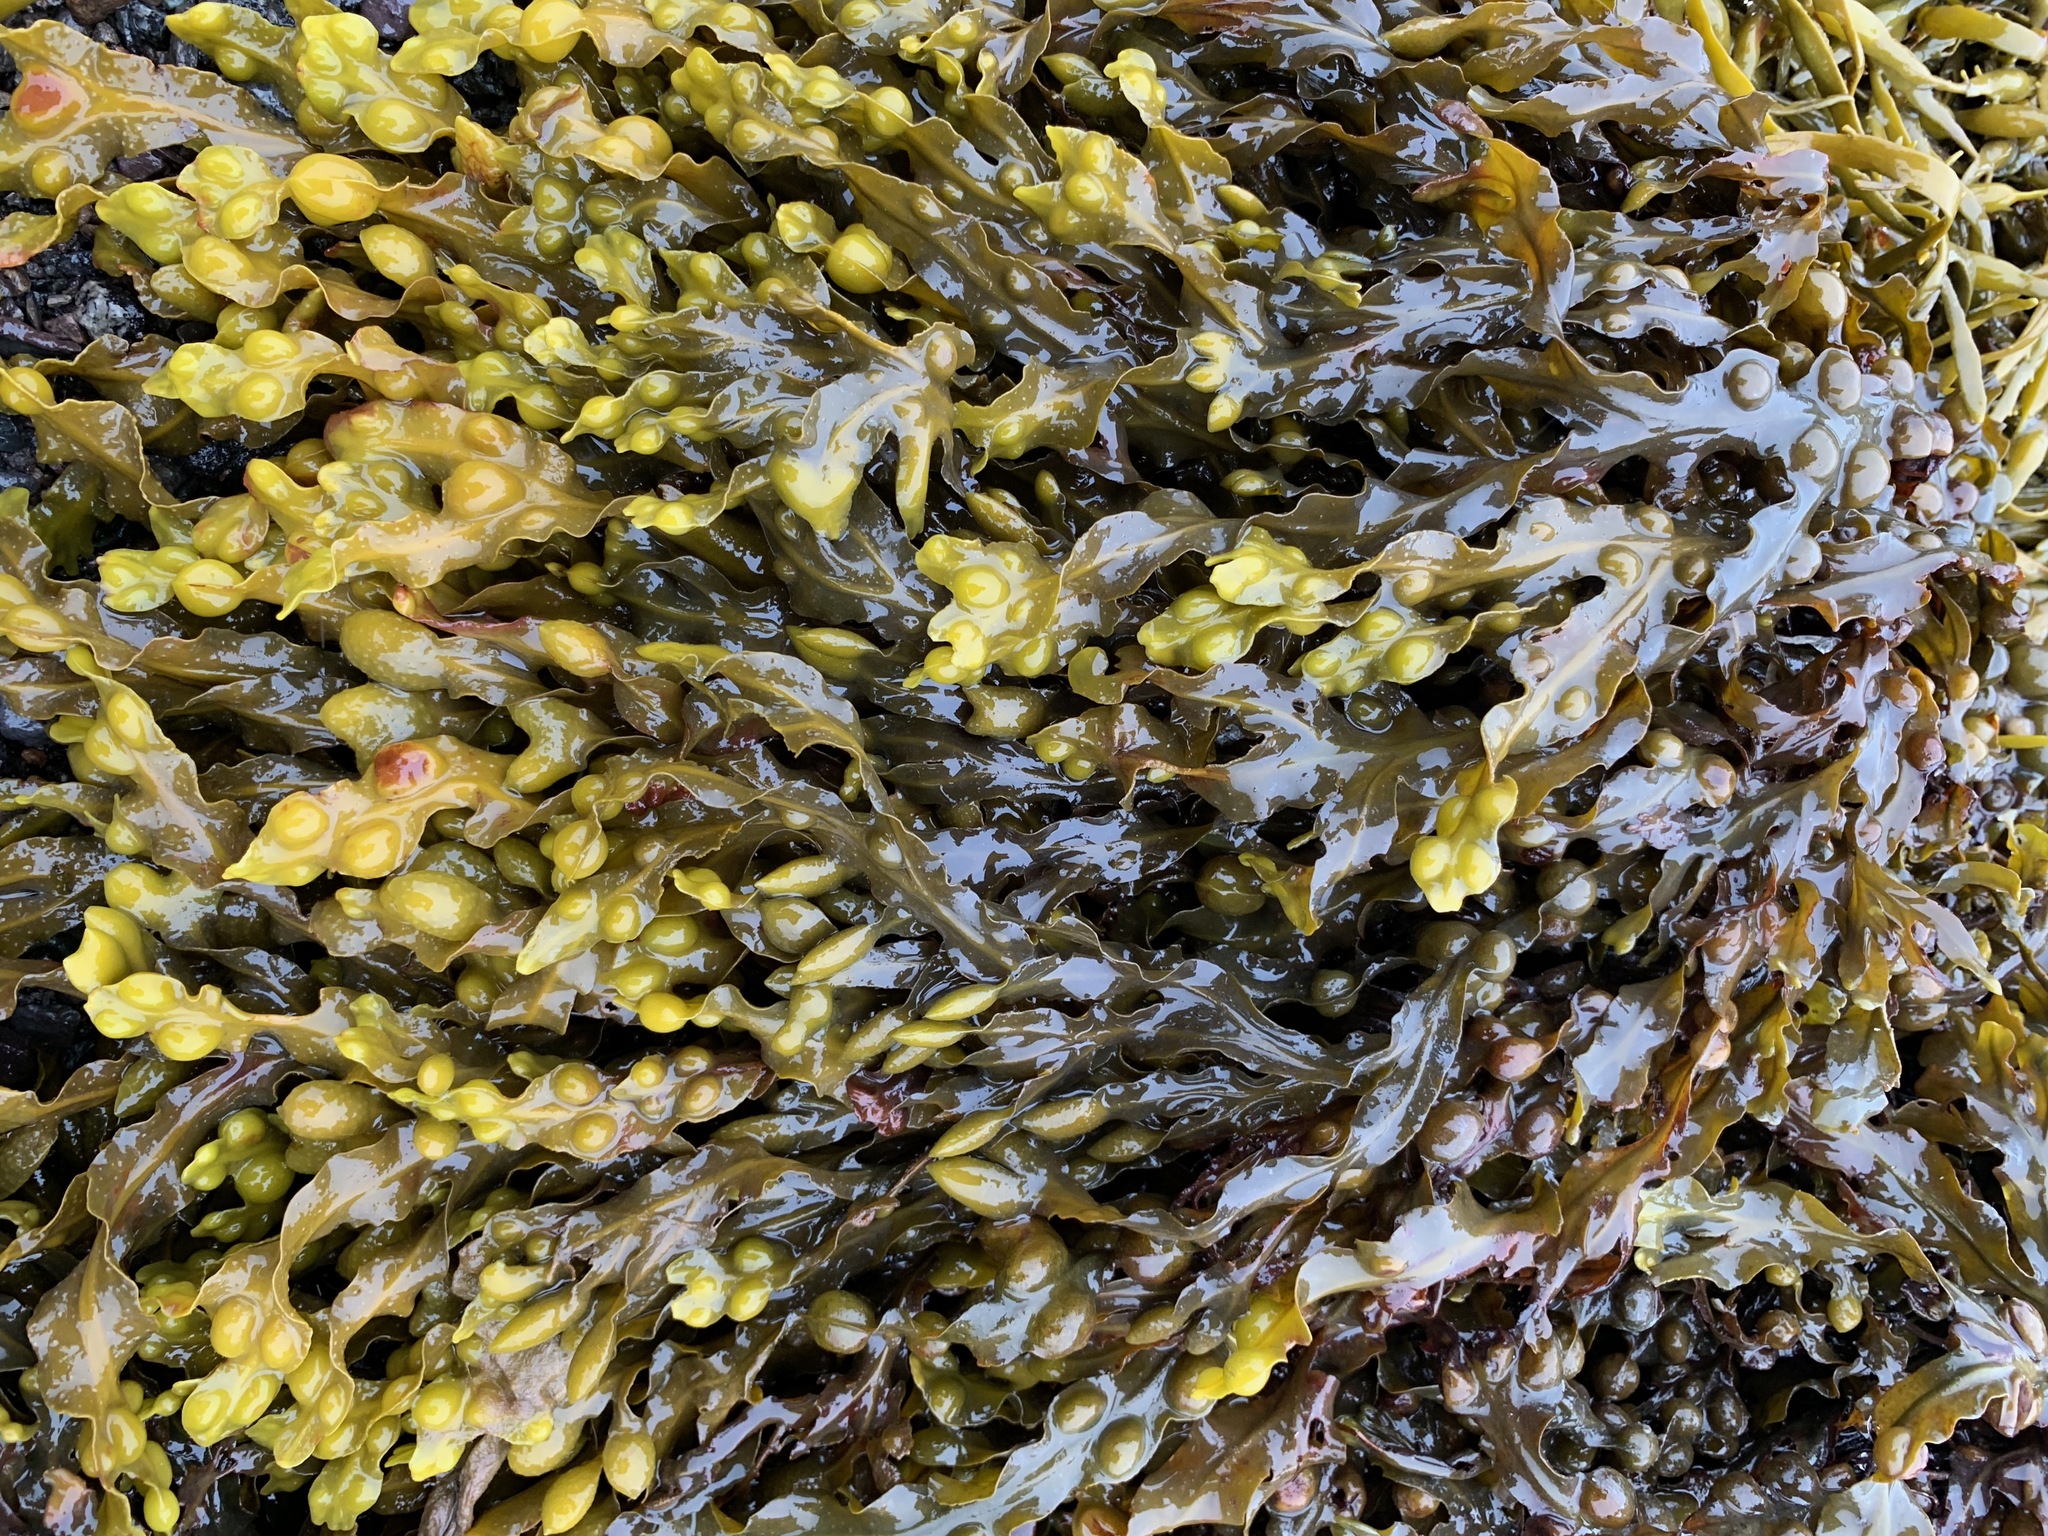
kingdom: Chromista
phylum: Ochrophyta
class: Phaeophyceae
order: Fucales
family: Fucaceae
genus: Fucus
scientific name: Fucus vesiculosus
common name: Bladder wrack
